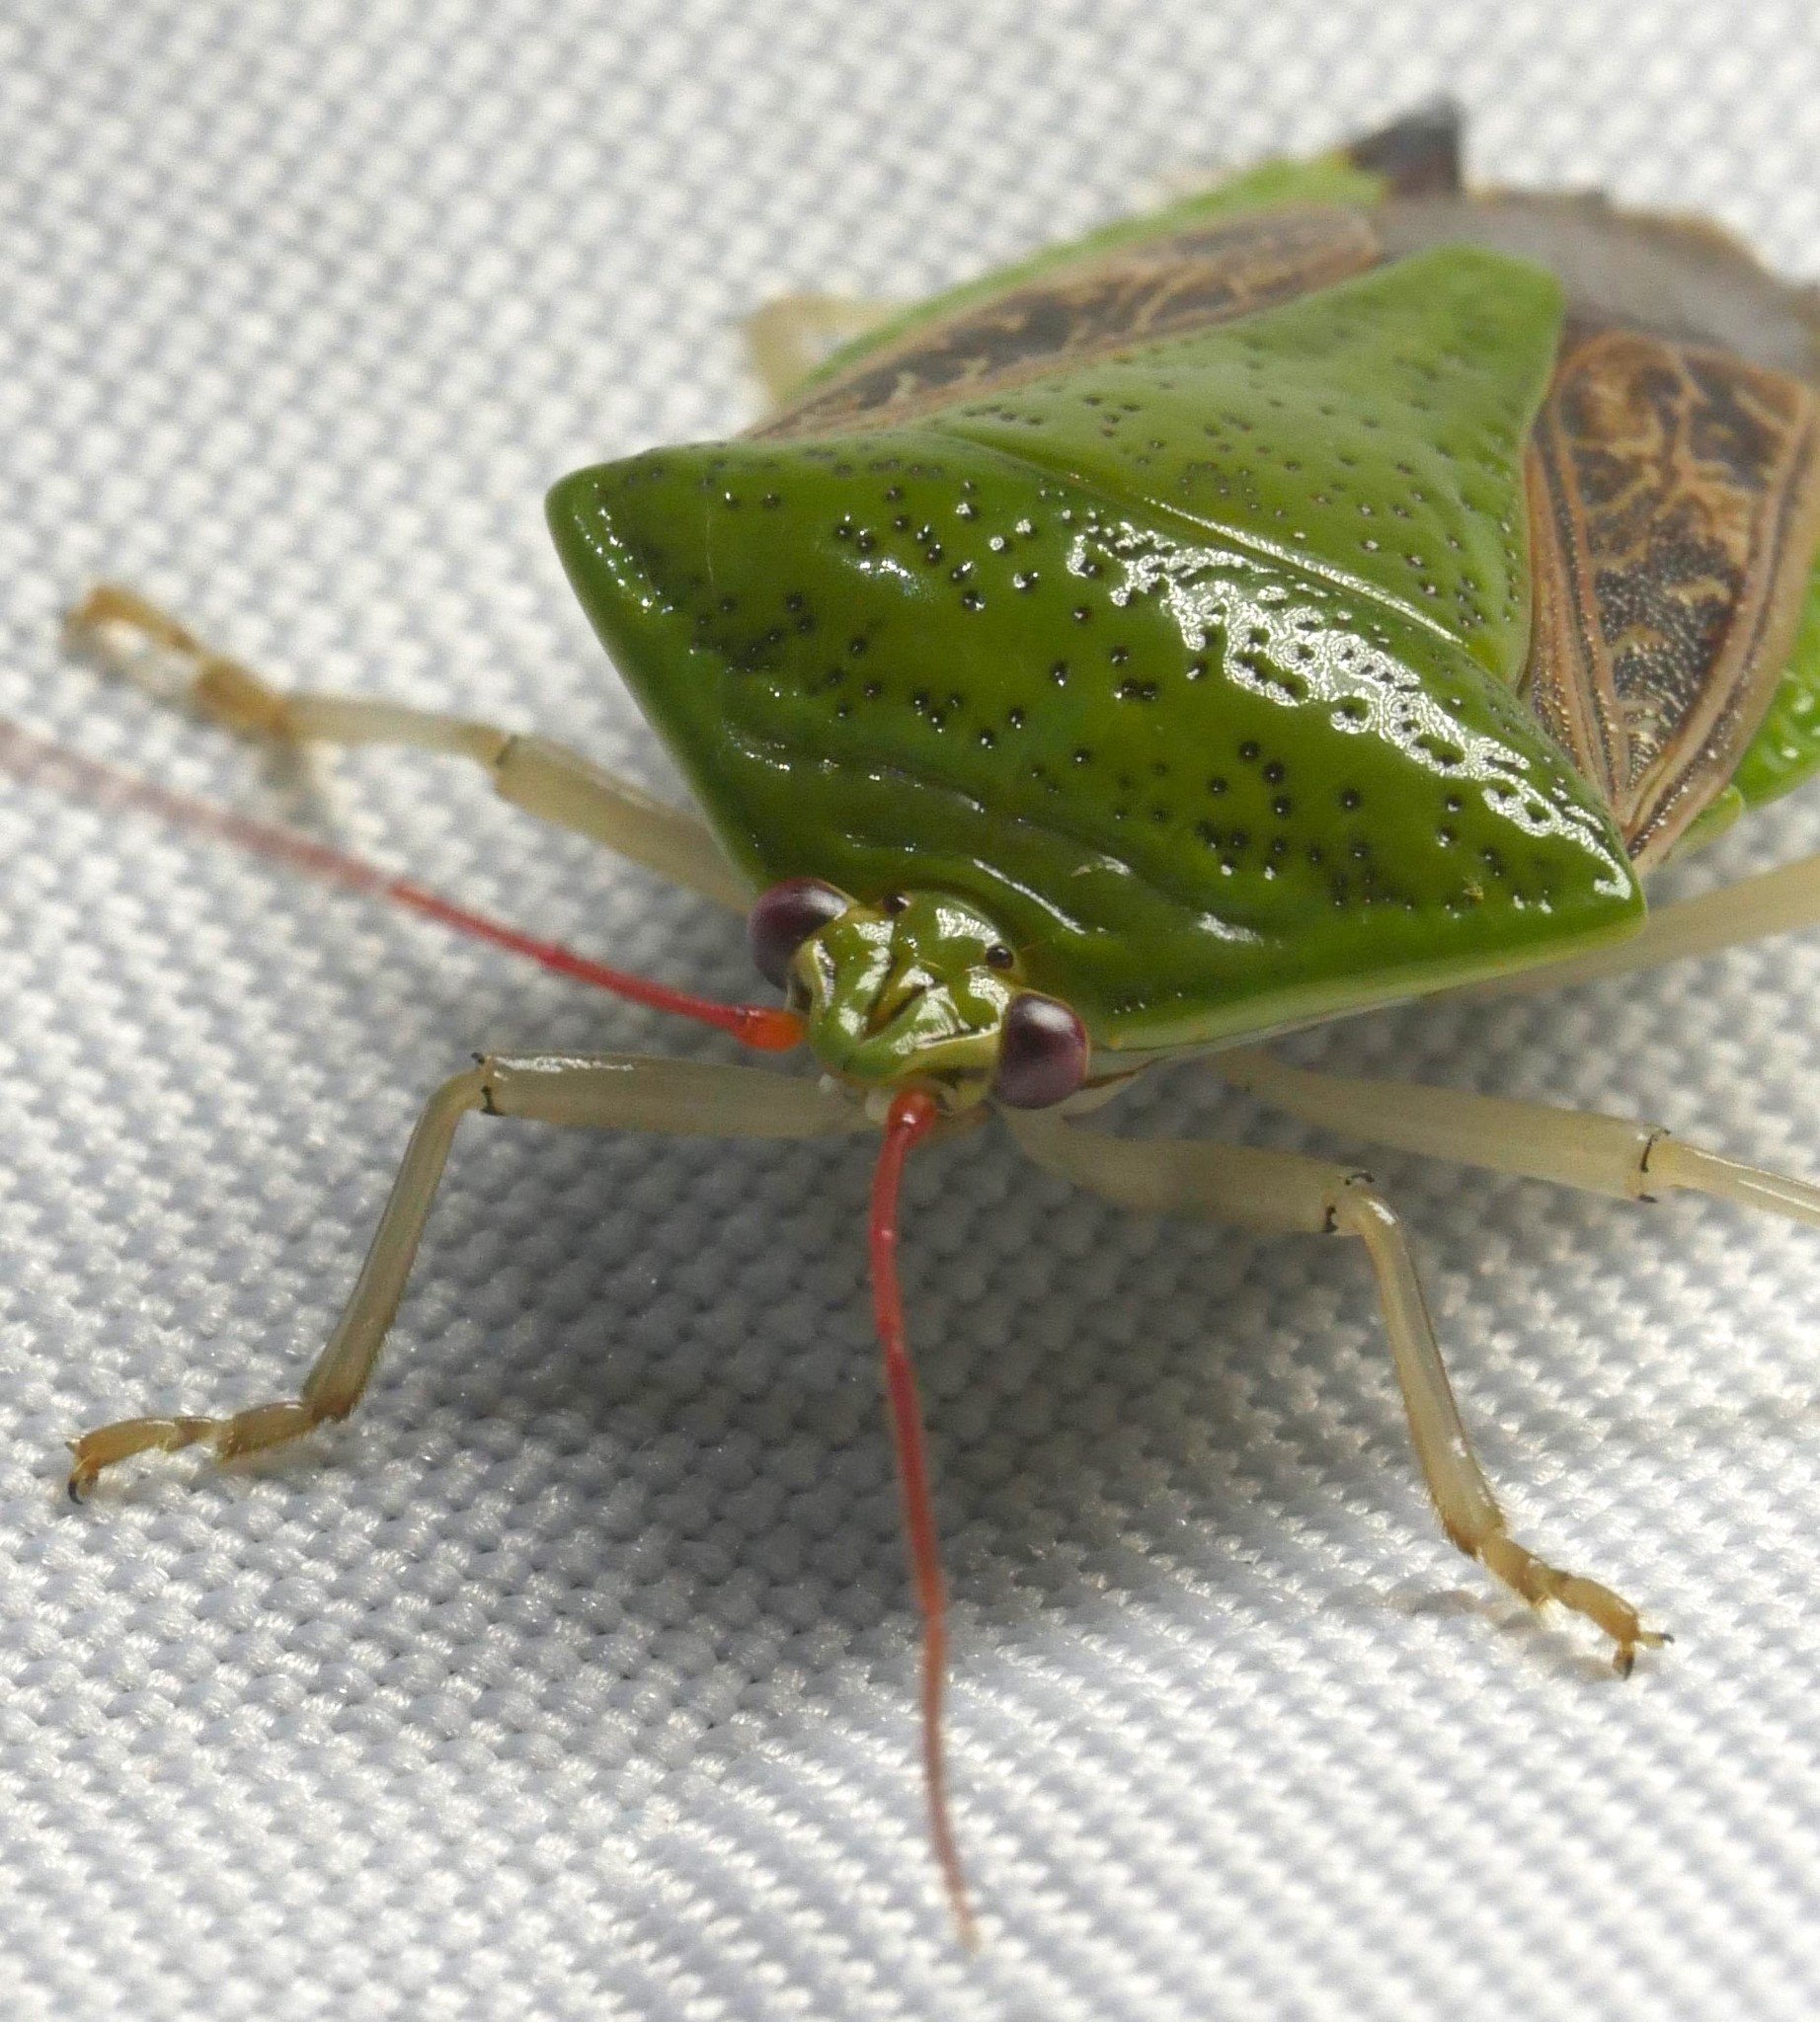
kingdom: Animalia
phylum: Arthropoda
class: Insecta
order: Hemiptera
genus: Pygoda
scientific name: Pygoda ramosa
